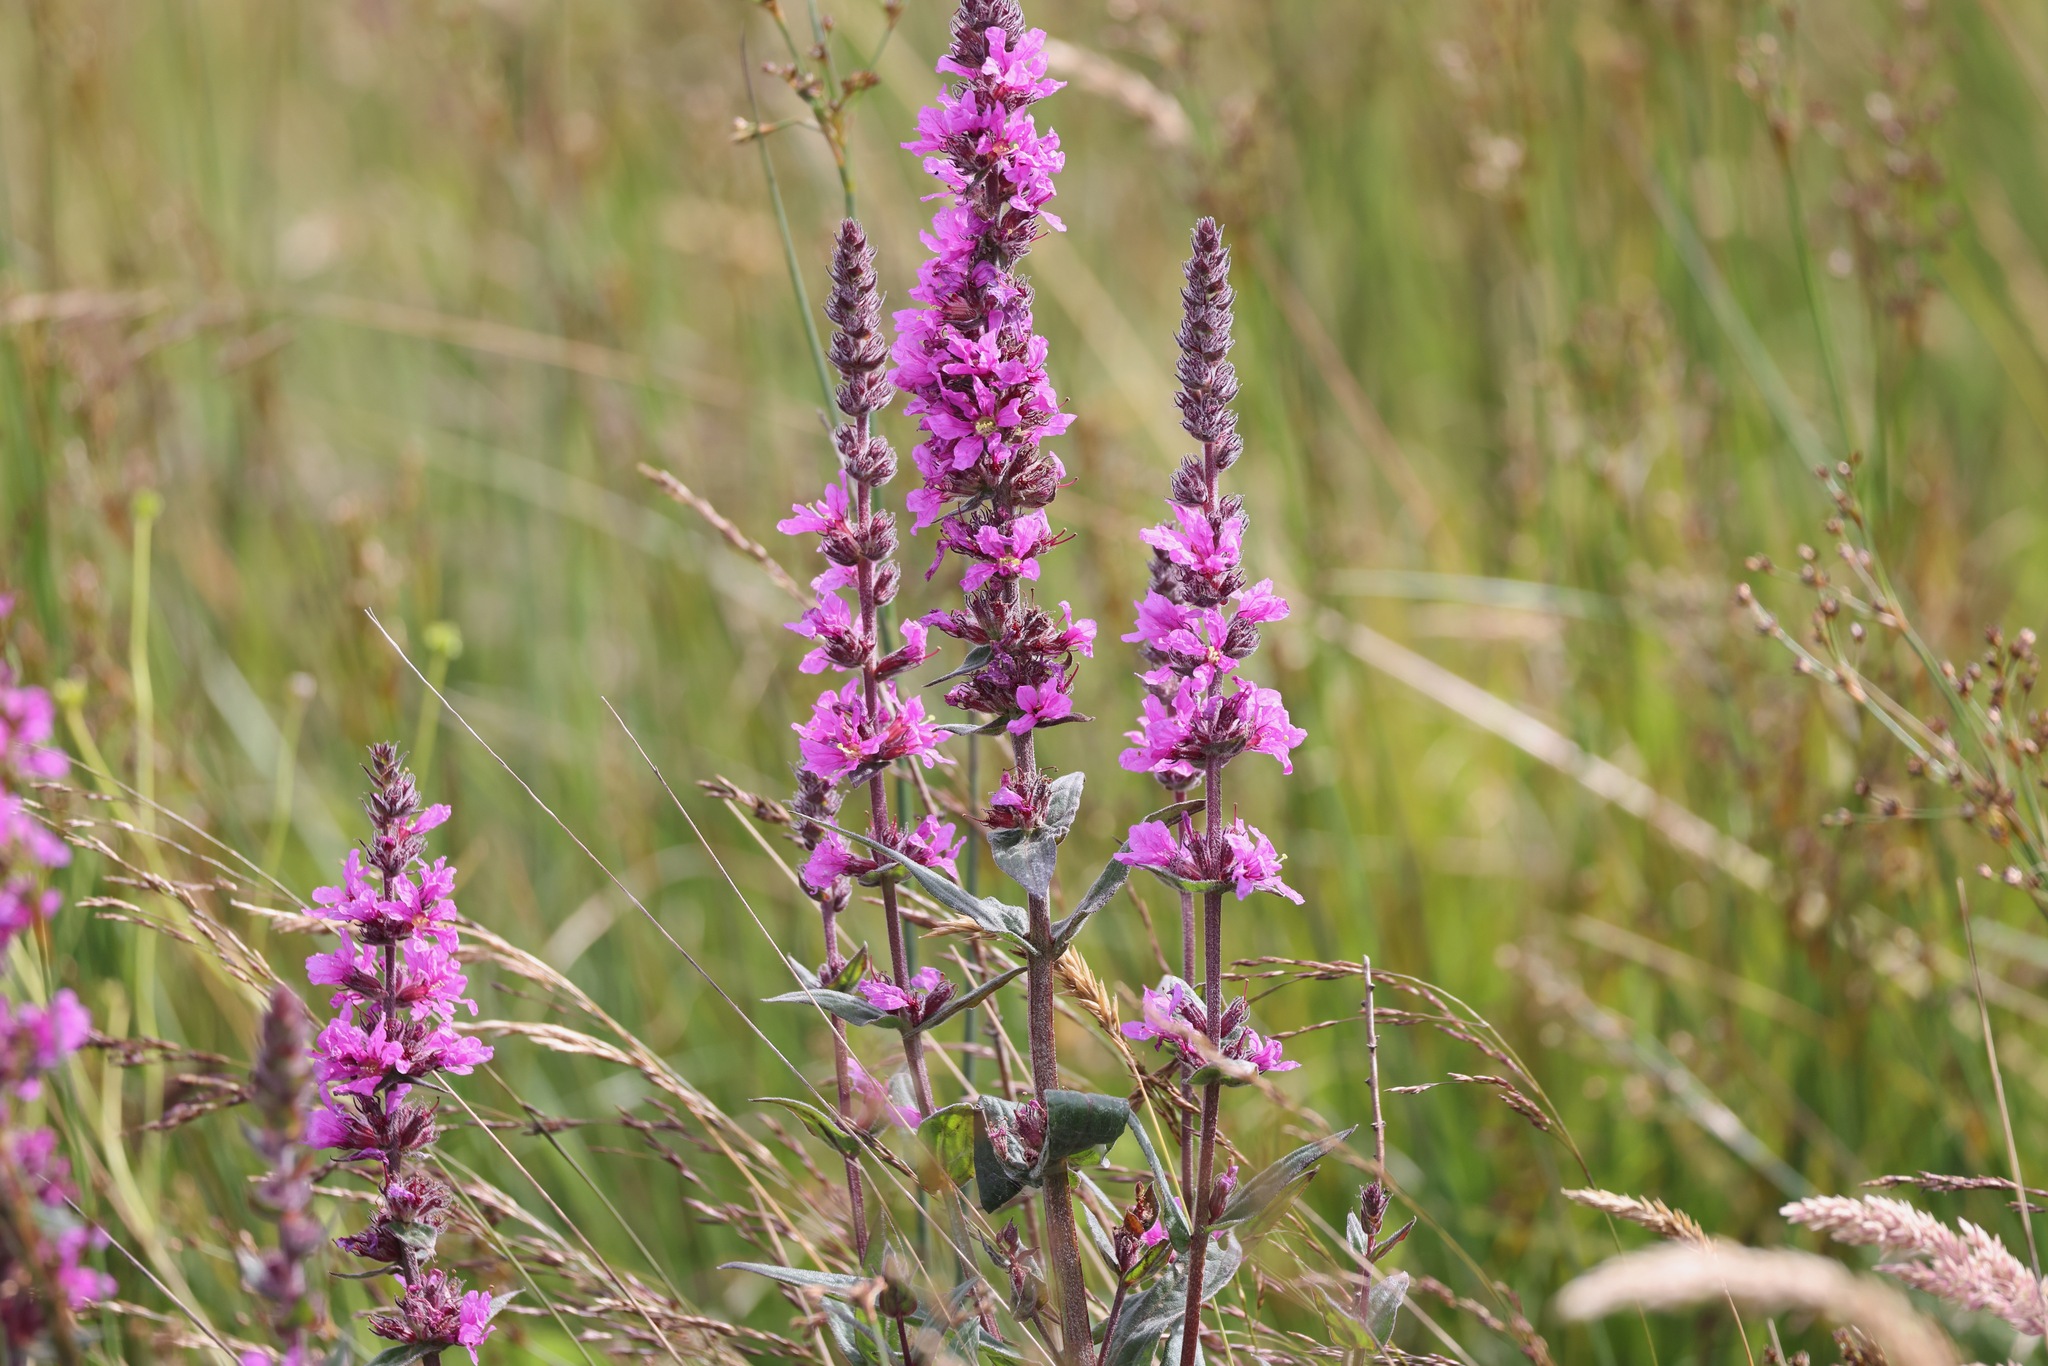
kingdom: Plantae
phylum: Tracheophyta
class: Magnoliopsida
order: Myrtales
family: Lythraceae
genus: Lythrum
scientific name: Lythrum salicaria
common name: Purple loosestrife
